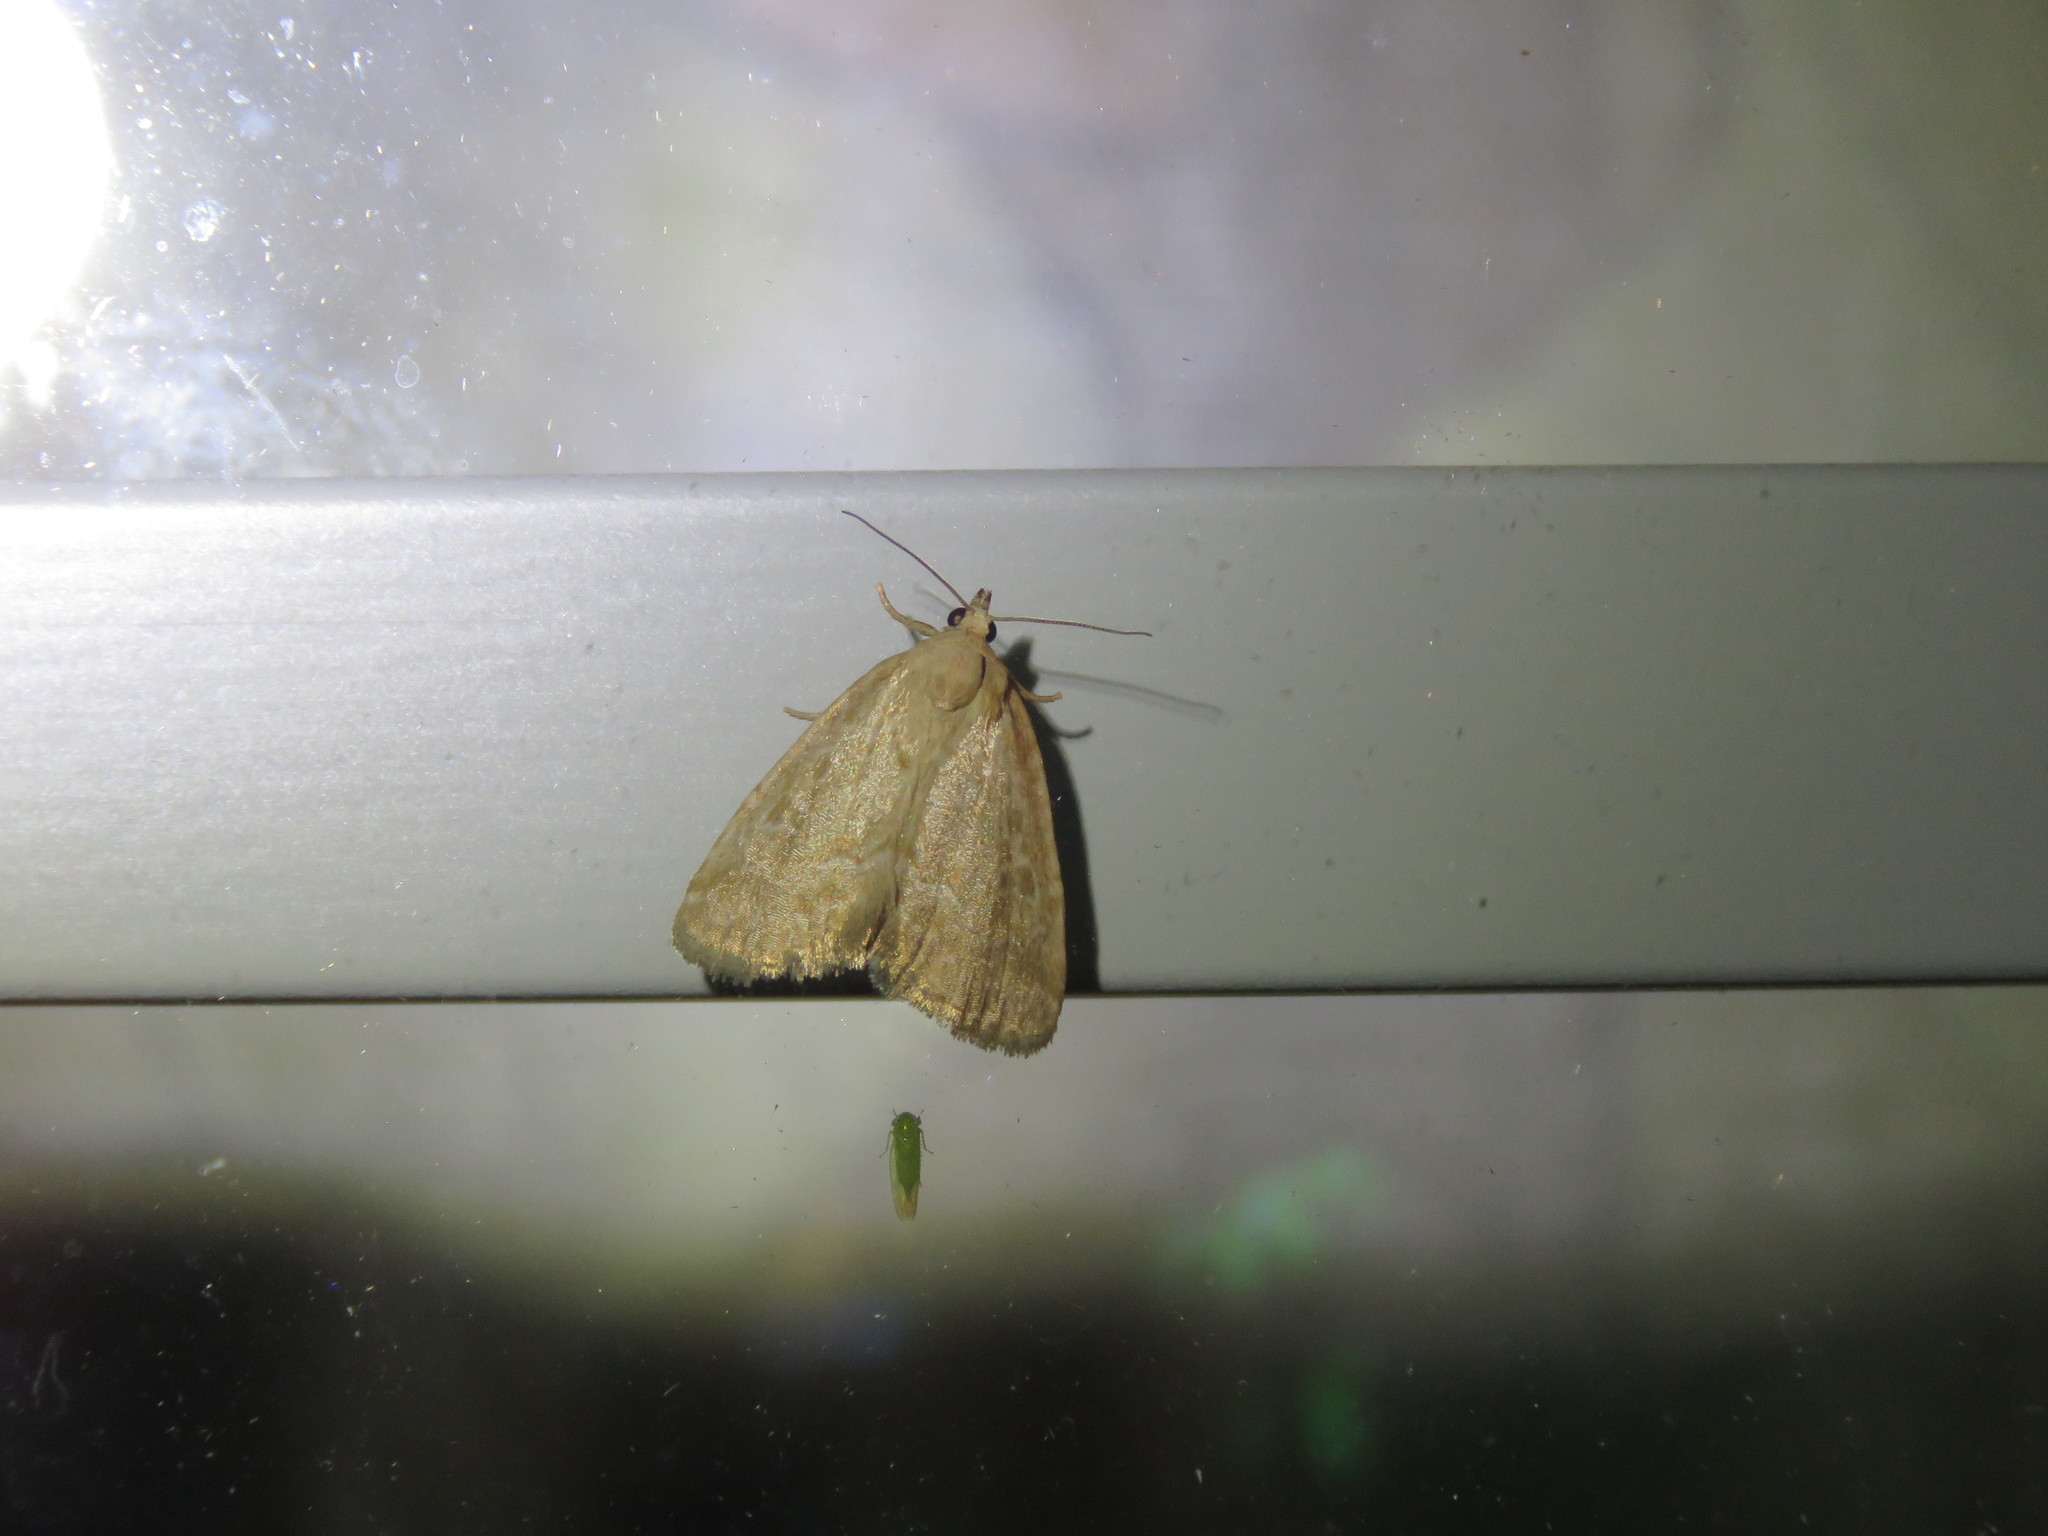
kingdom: Animalia
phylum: Arthropoda
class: Insecta
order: Lepidoptera
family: Noctuidae
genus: Protodeltote
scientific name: Protodeltote albidula
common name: Pale glyph
